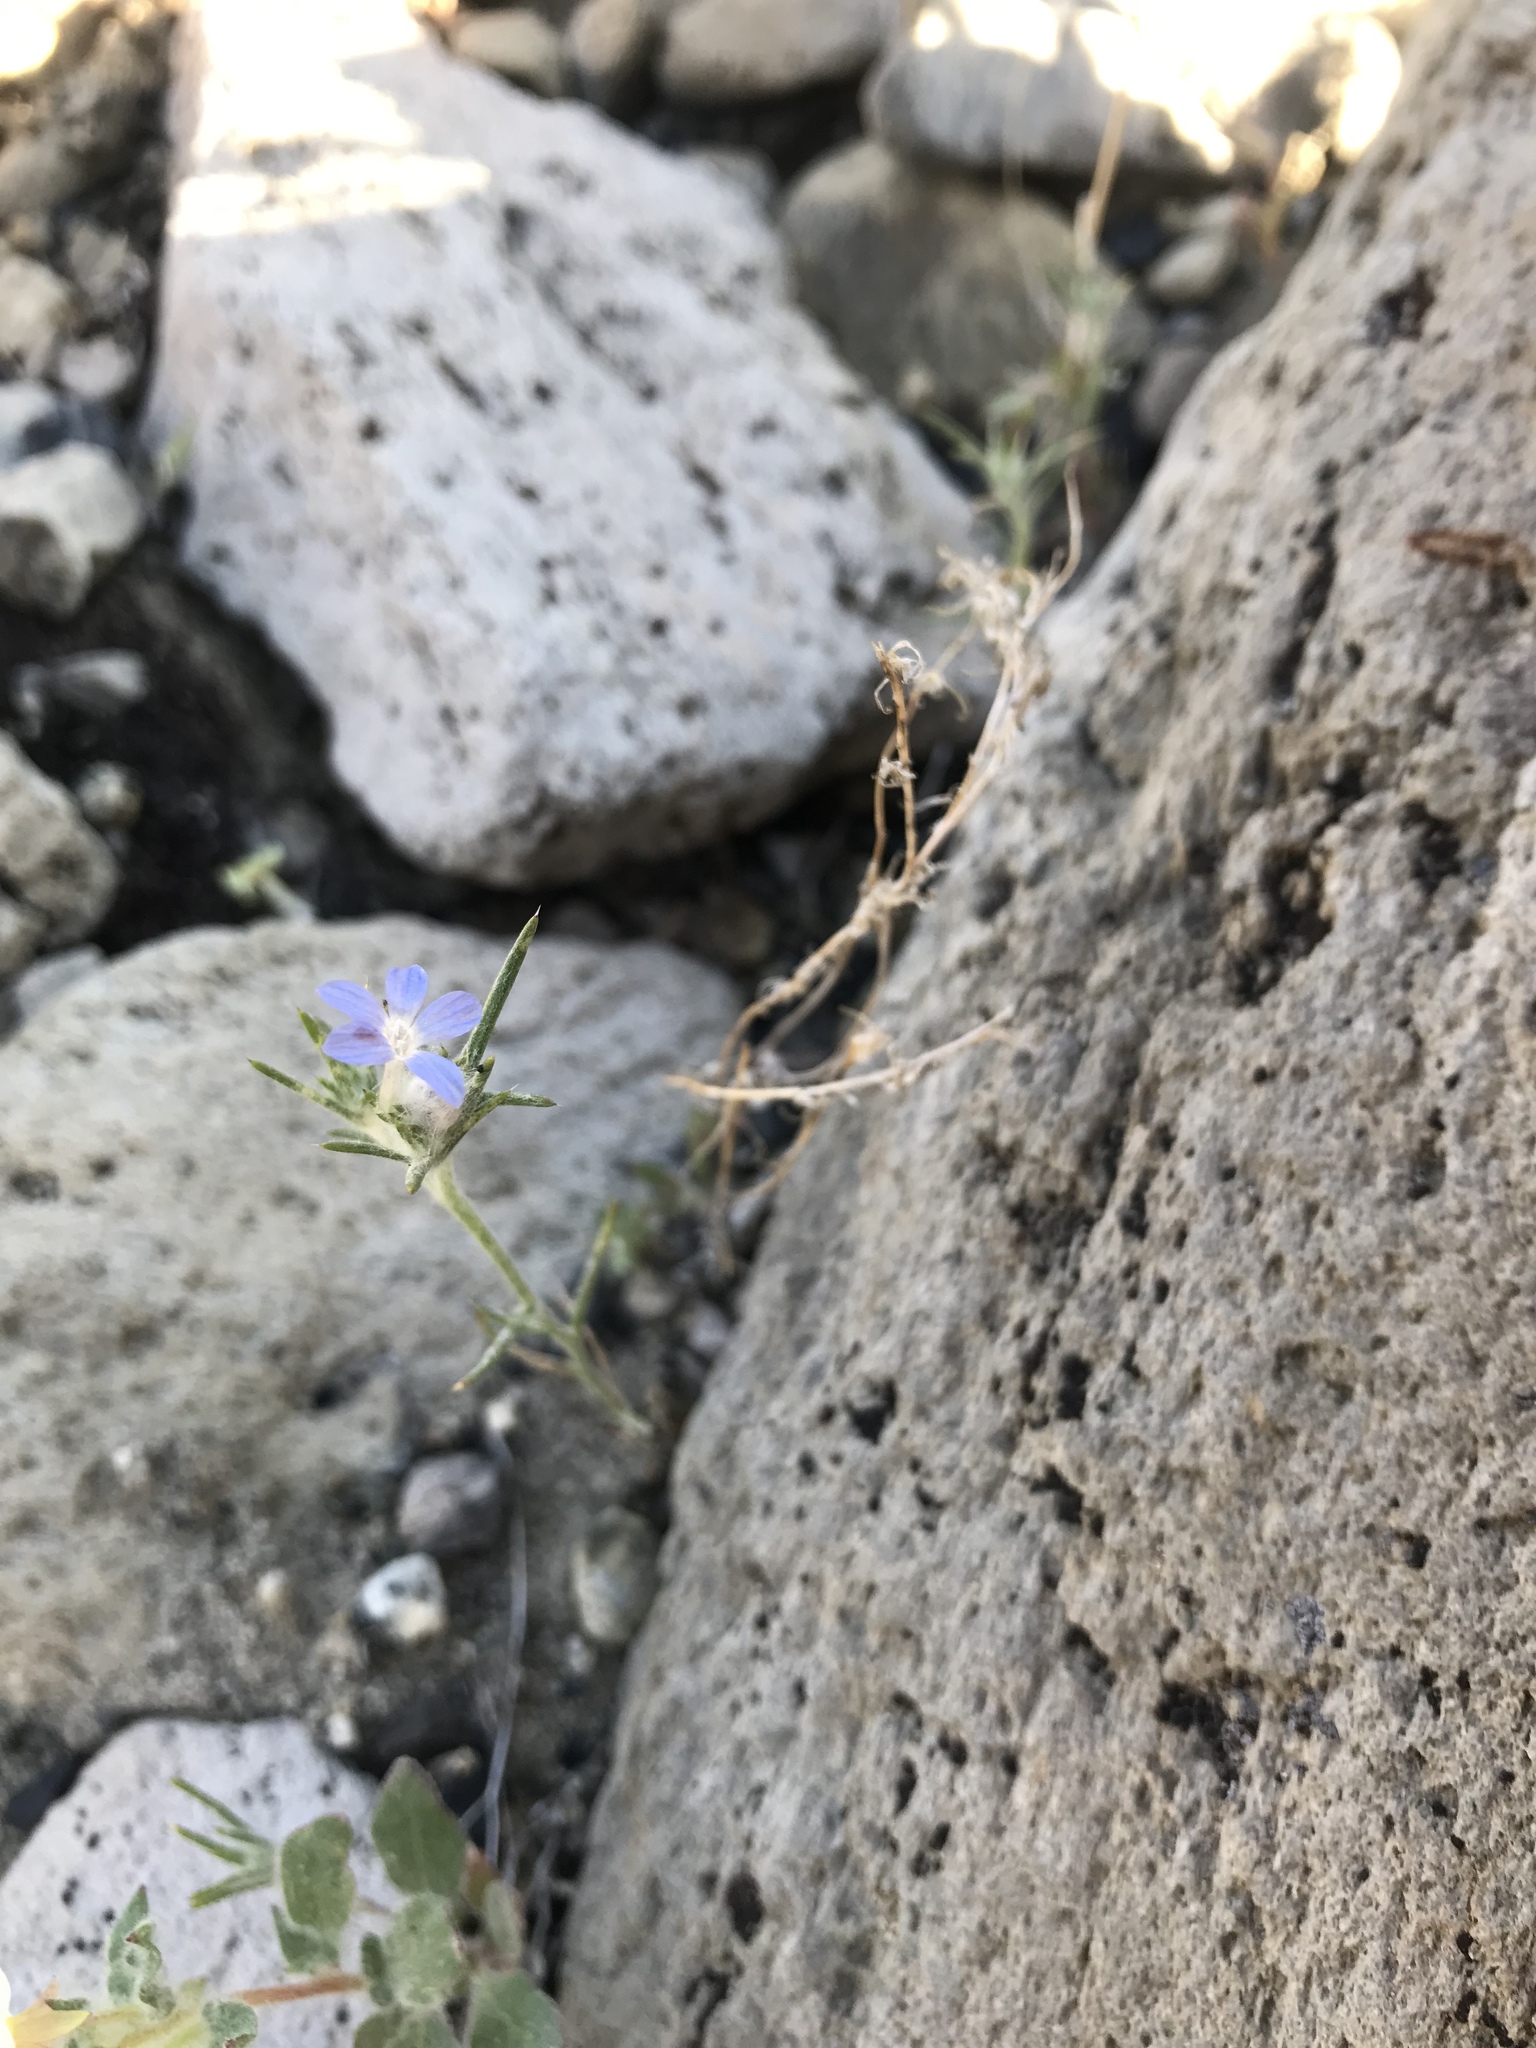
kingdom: Plantae
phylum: Tracheophyta
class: Magnoliopsida
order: Ericales
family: Polemoniaceae
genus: Eriastrum
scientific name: Eriastrum wilcoxii
